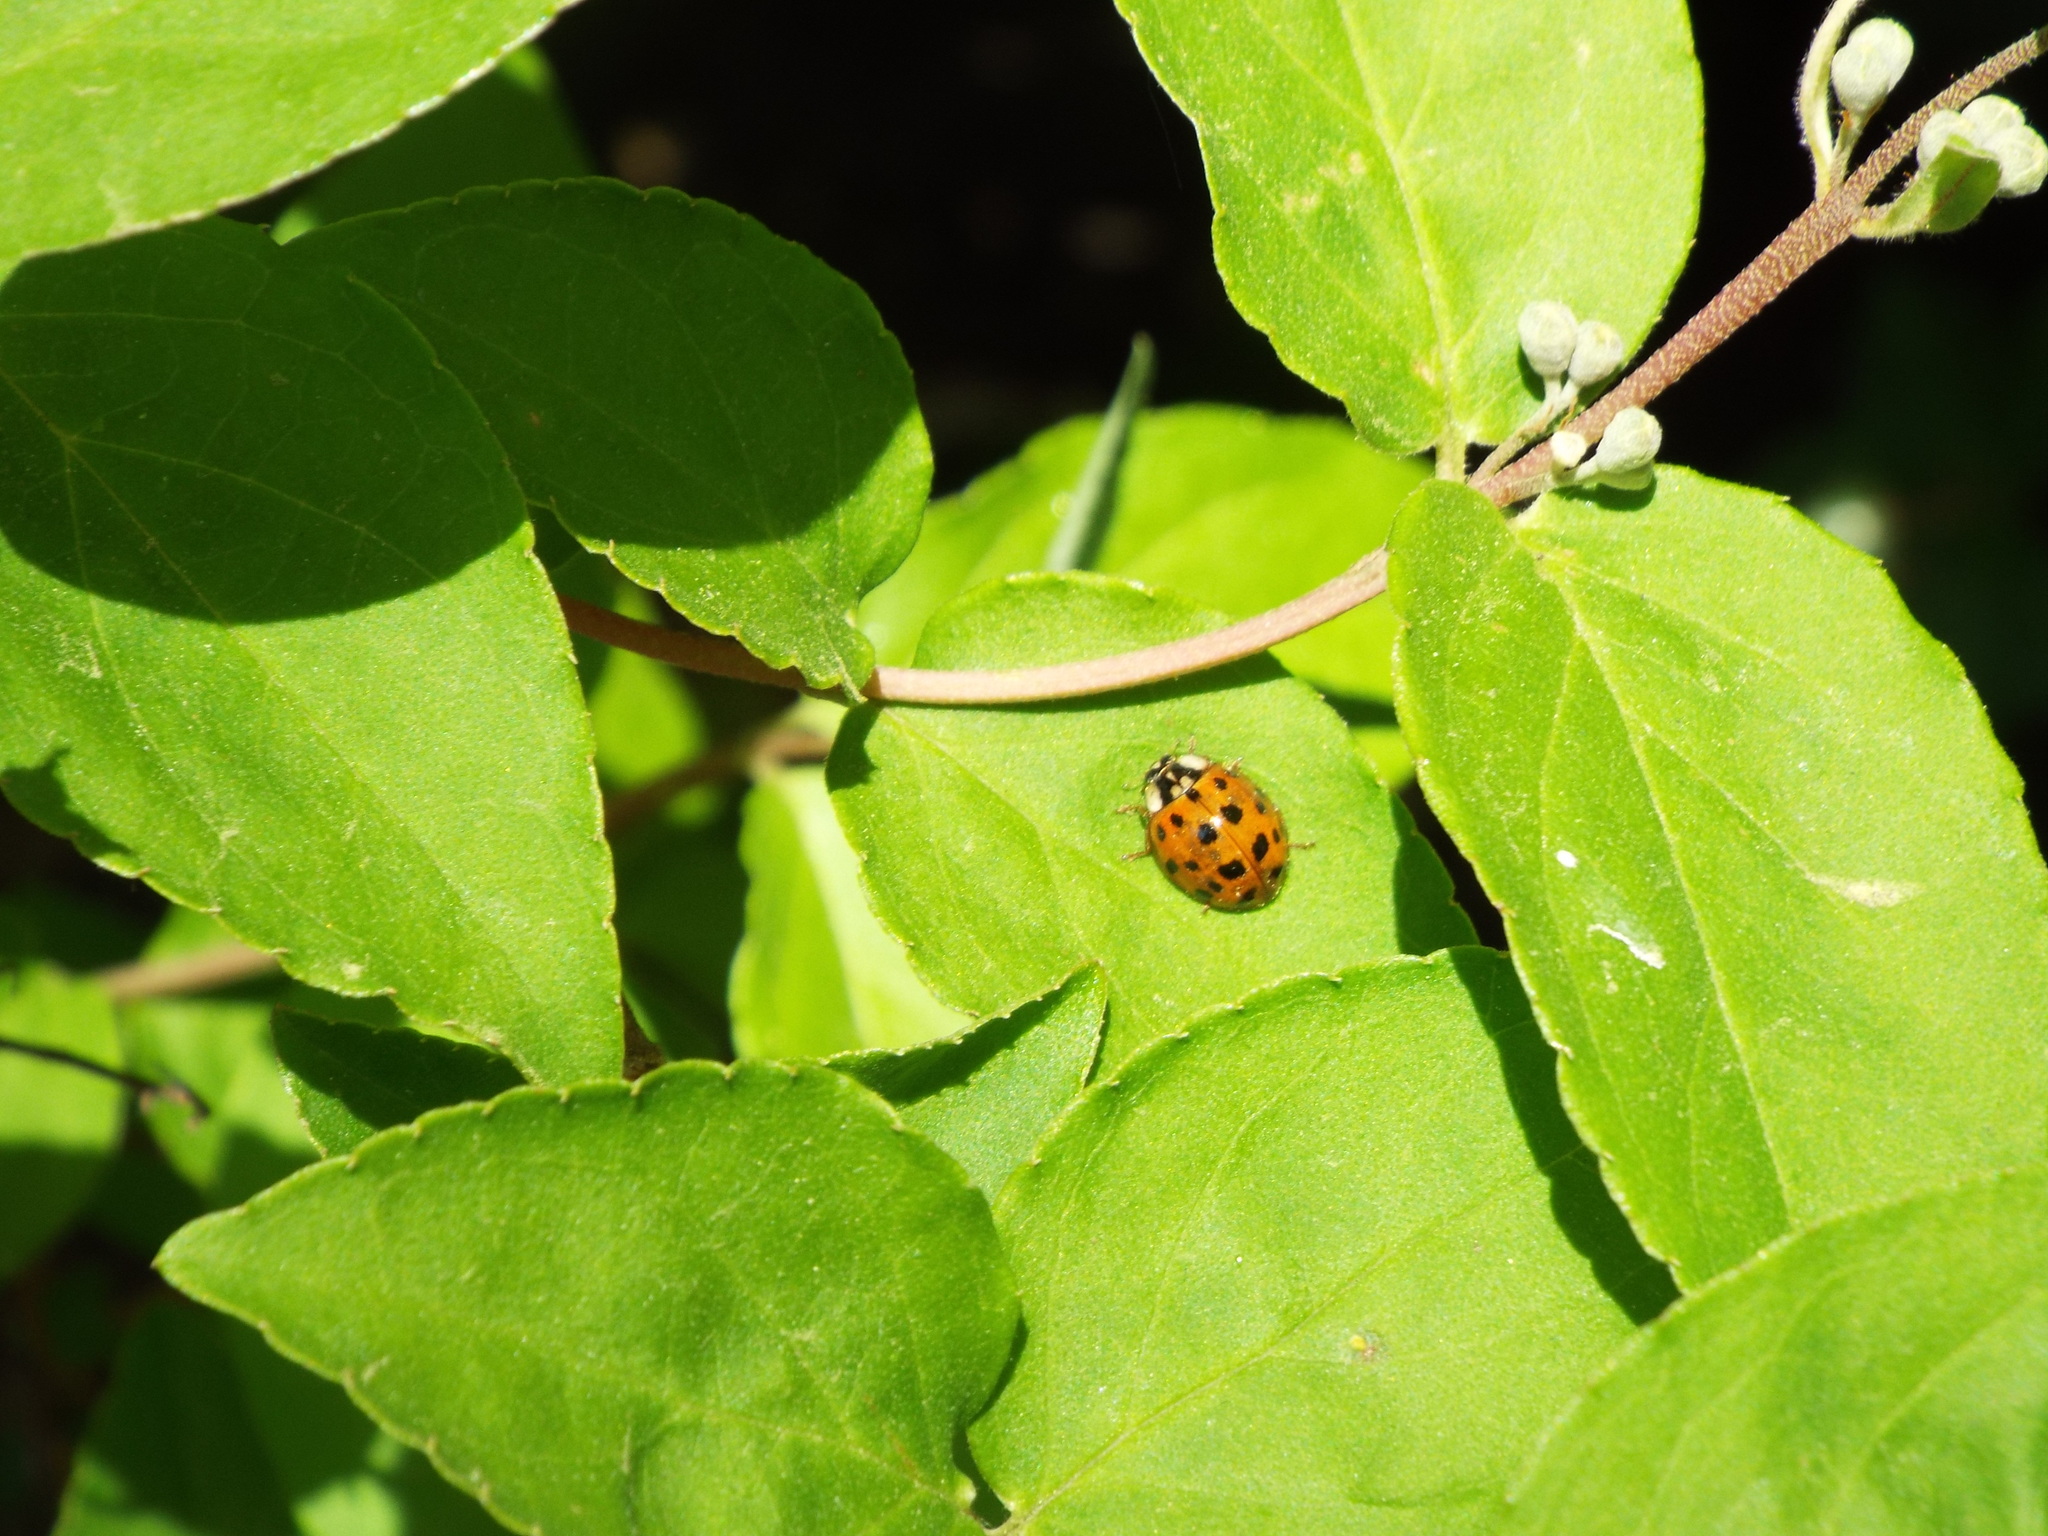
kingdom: Animalia
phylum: Arthropoda
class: Insecta
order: Coleoptera
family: Coccinellidae
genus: Harmonia
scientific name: Harmonia axyridis
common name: Harlequin ladybird
